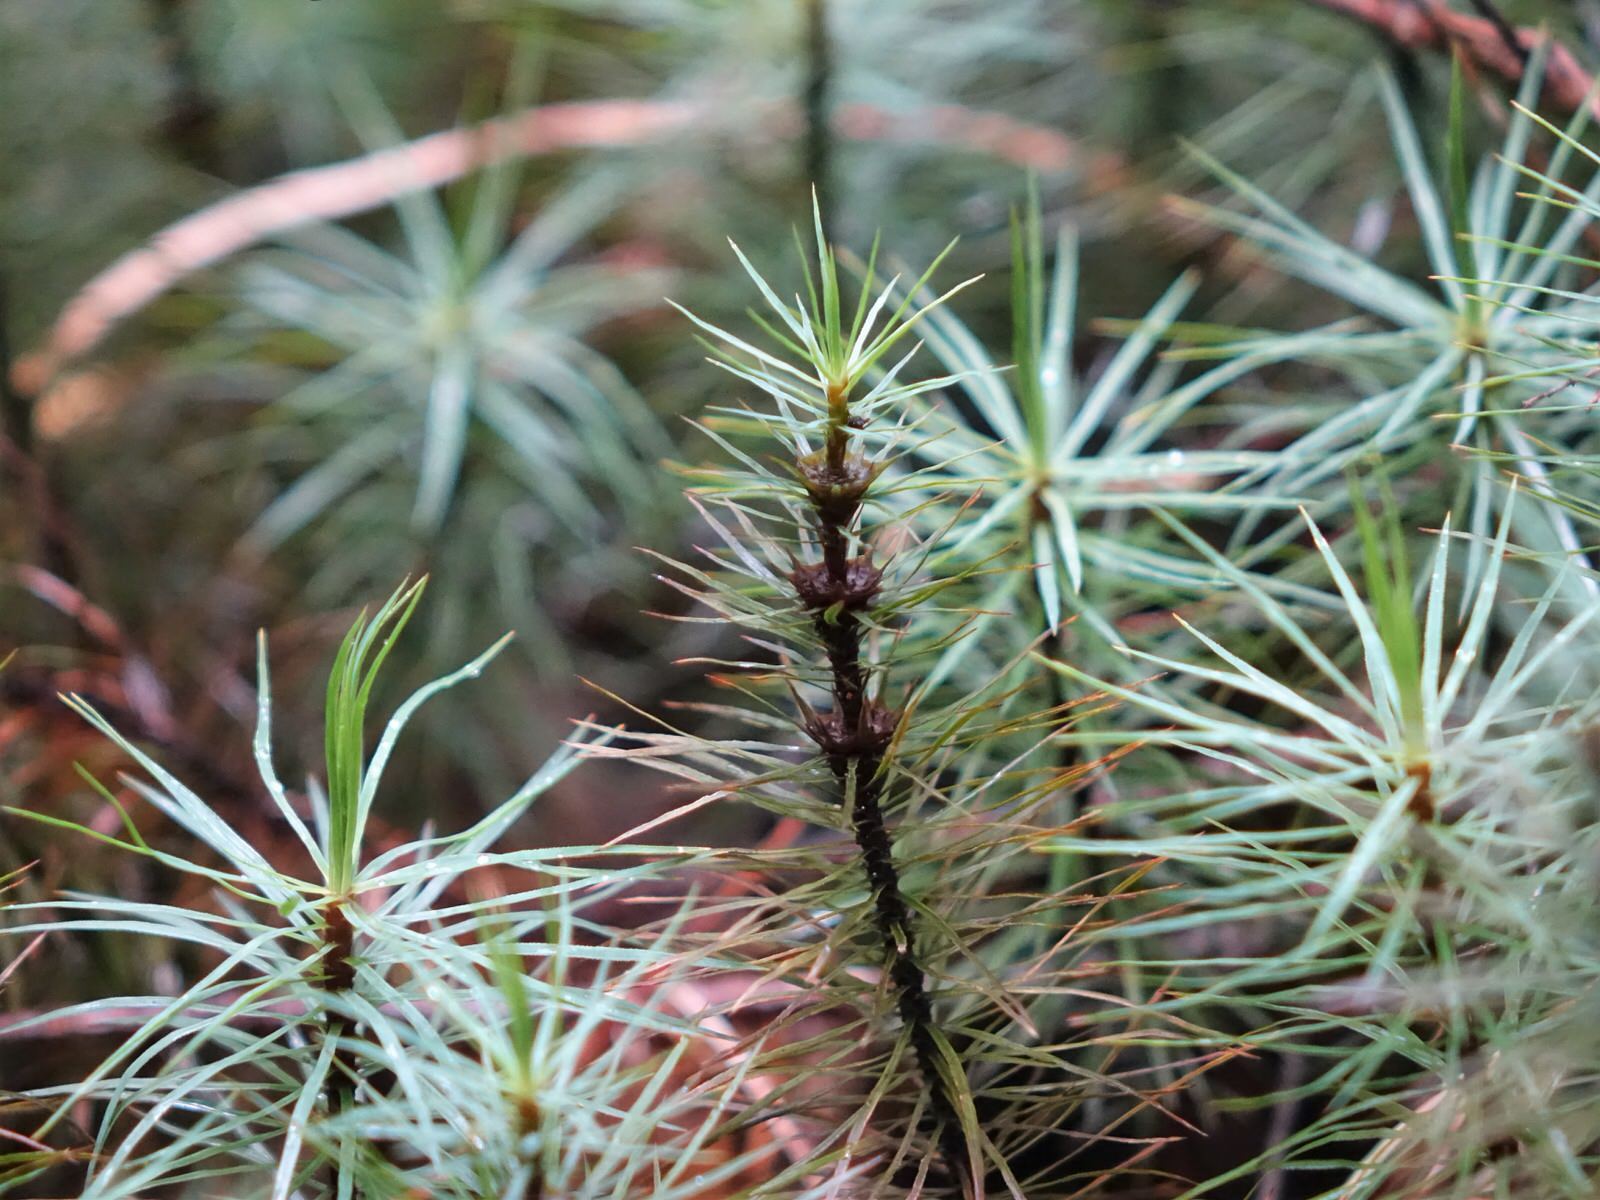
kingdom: Plantae
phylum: Bryophyta
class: Polytrichopsida
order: Polytrichales
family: Polytrichaceae
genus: Dawsonia
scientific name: Dawsonia superba
